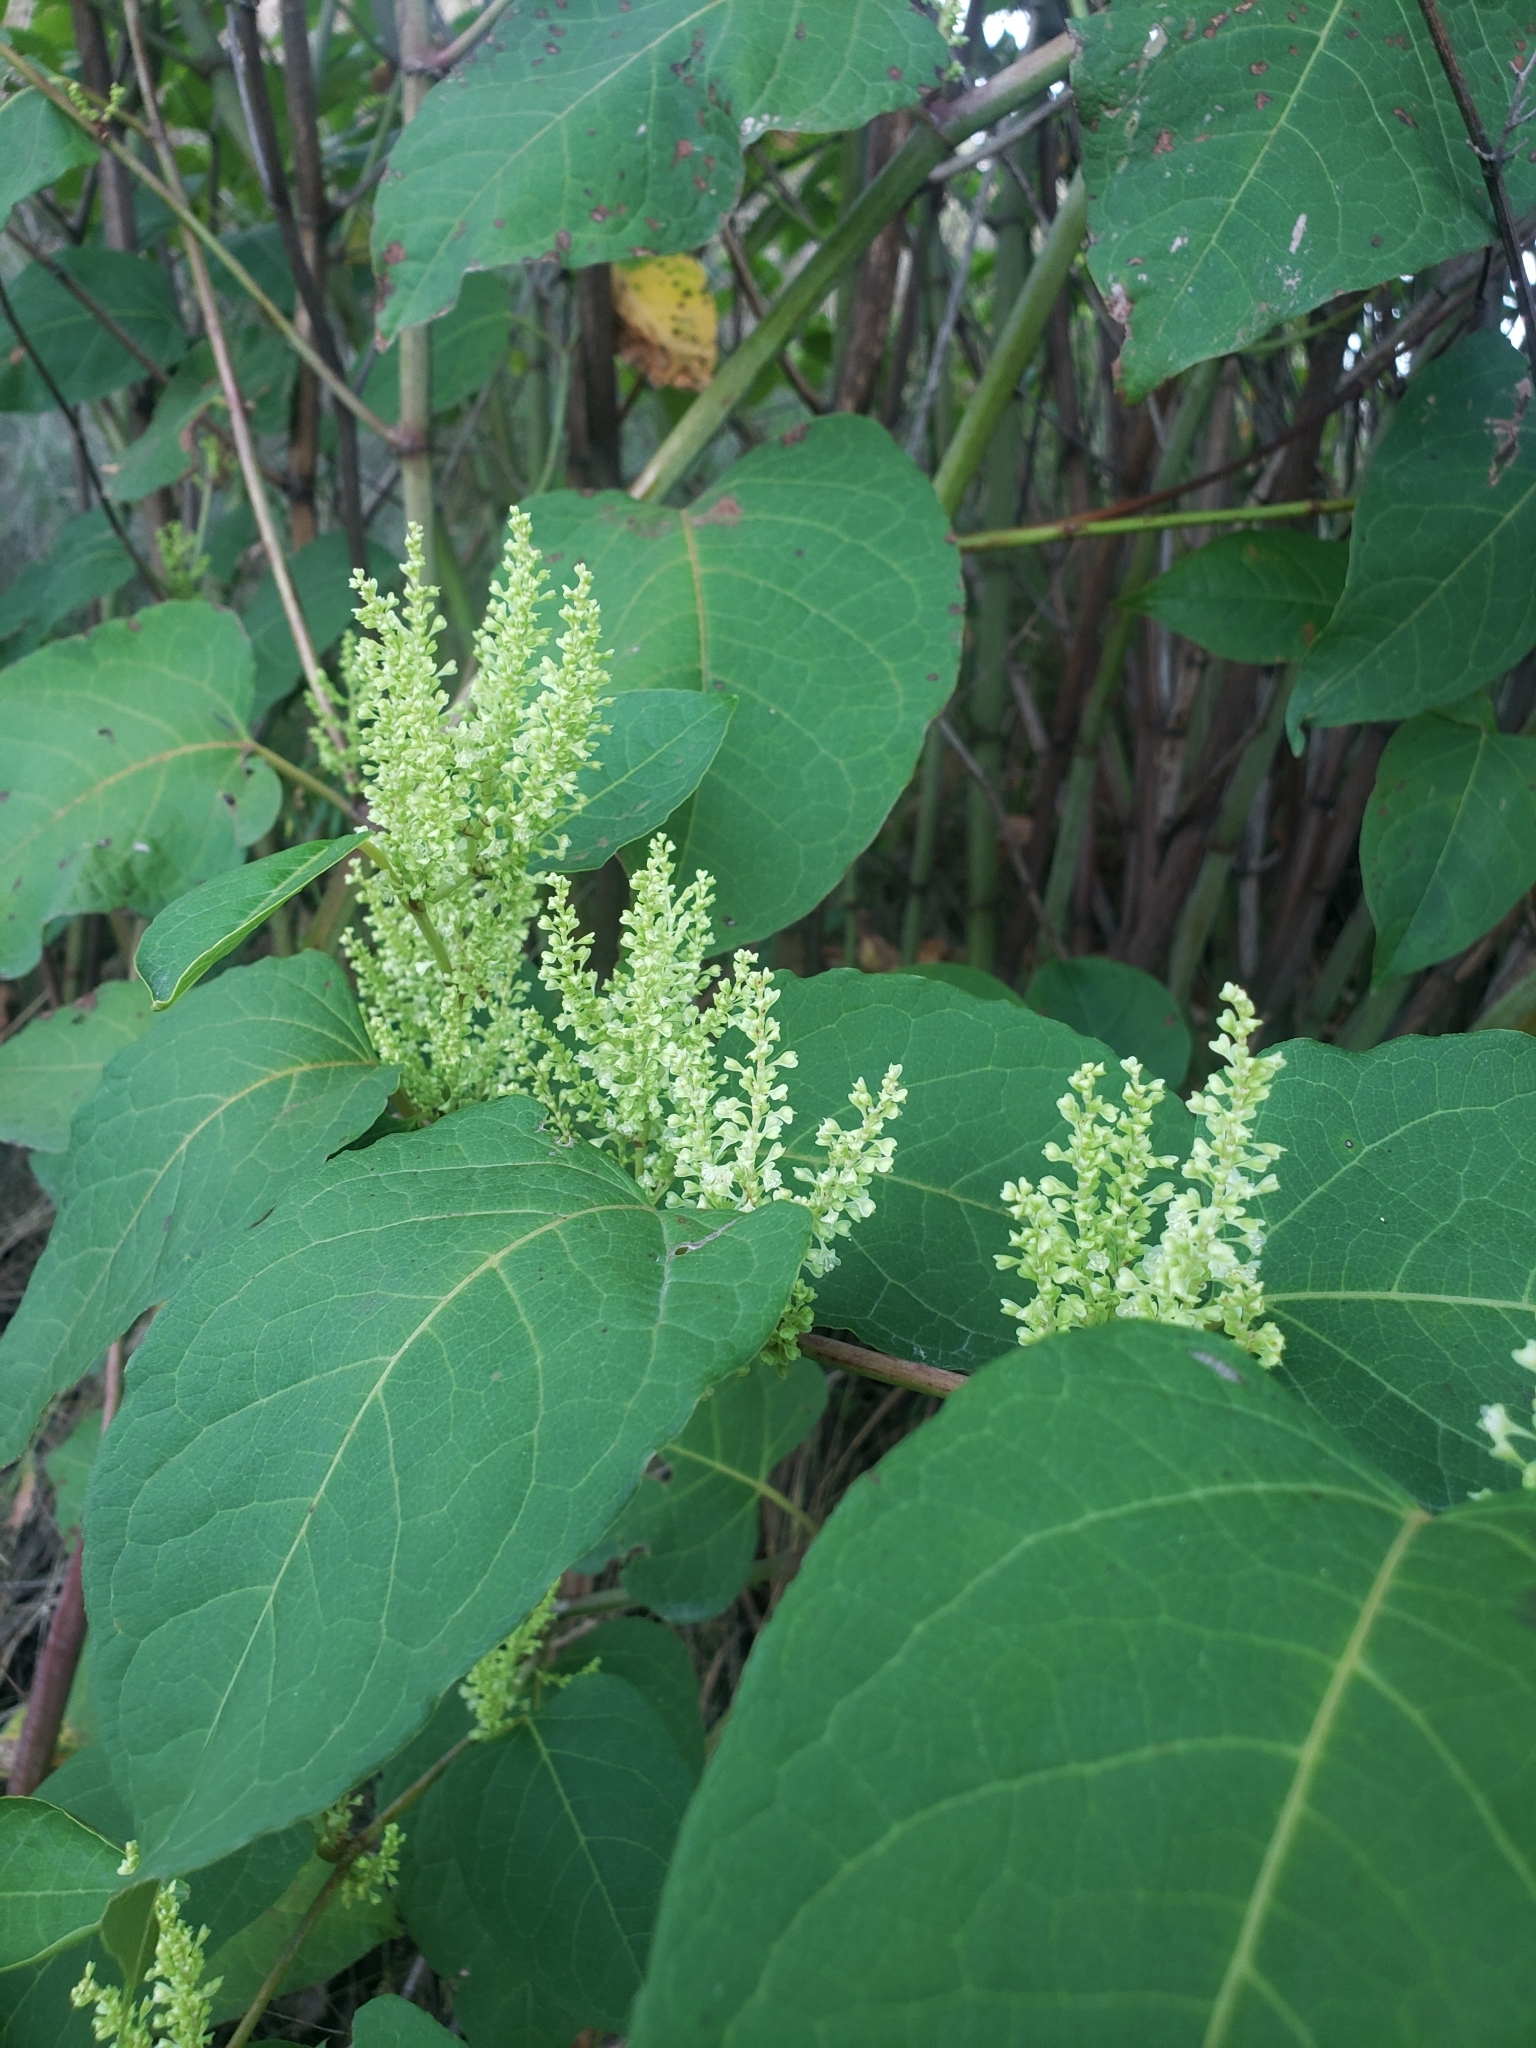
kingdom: Plantae
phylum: Tracheophyta
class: Magnoliopsida
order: Caryophyllales
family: Polygonaceae
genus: Reynoutria
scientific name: Reynoutria japonica
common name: Japanese knotweed
